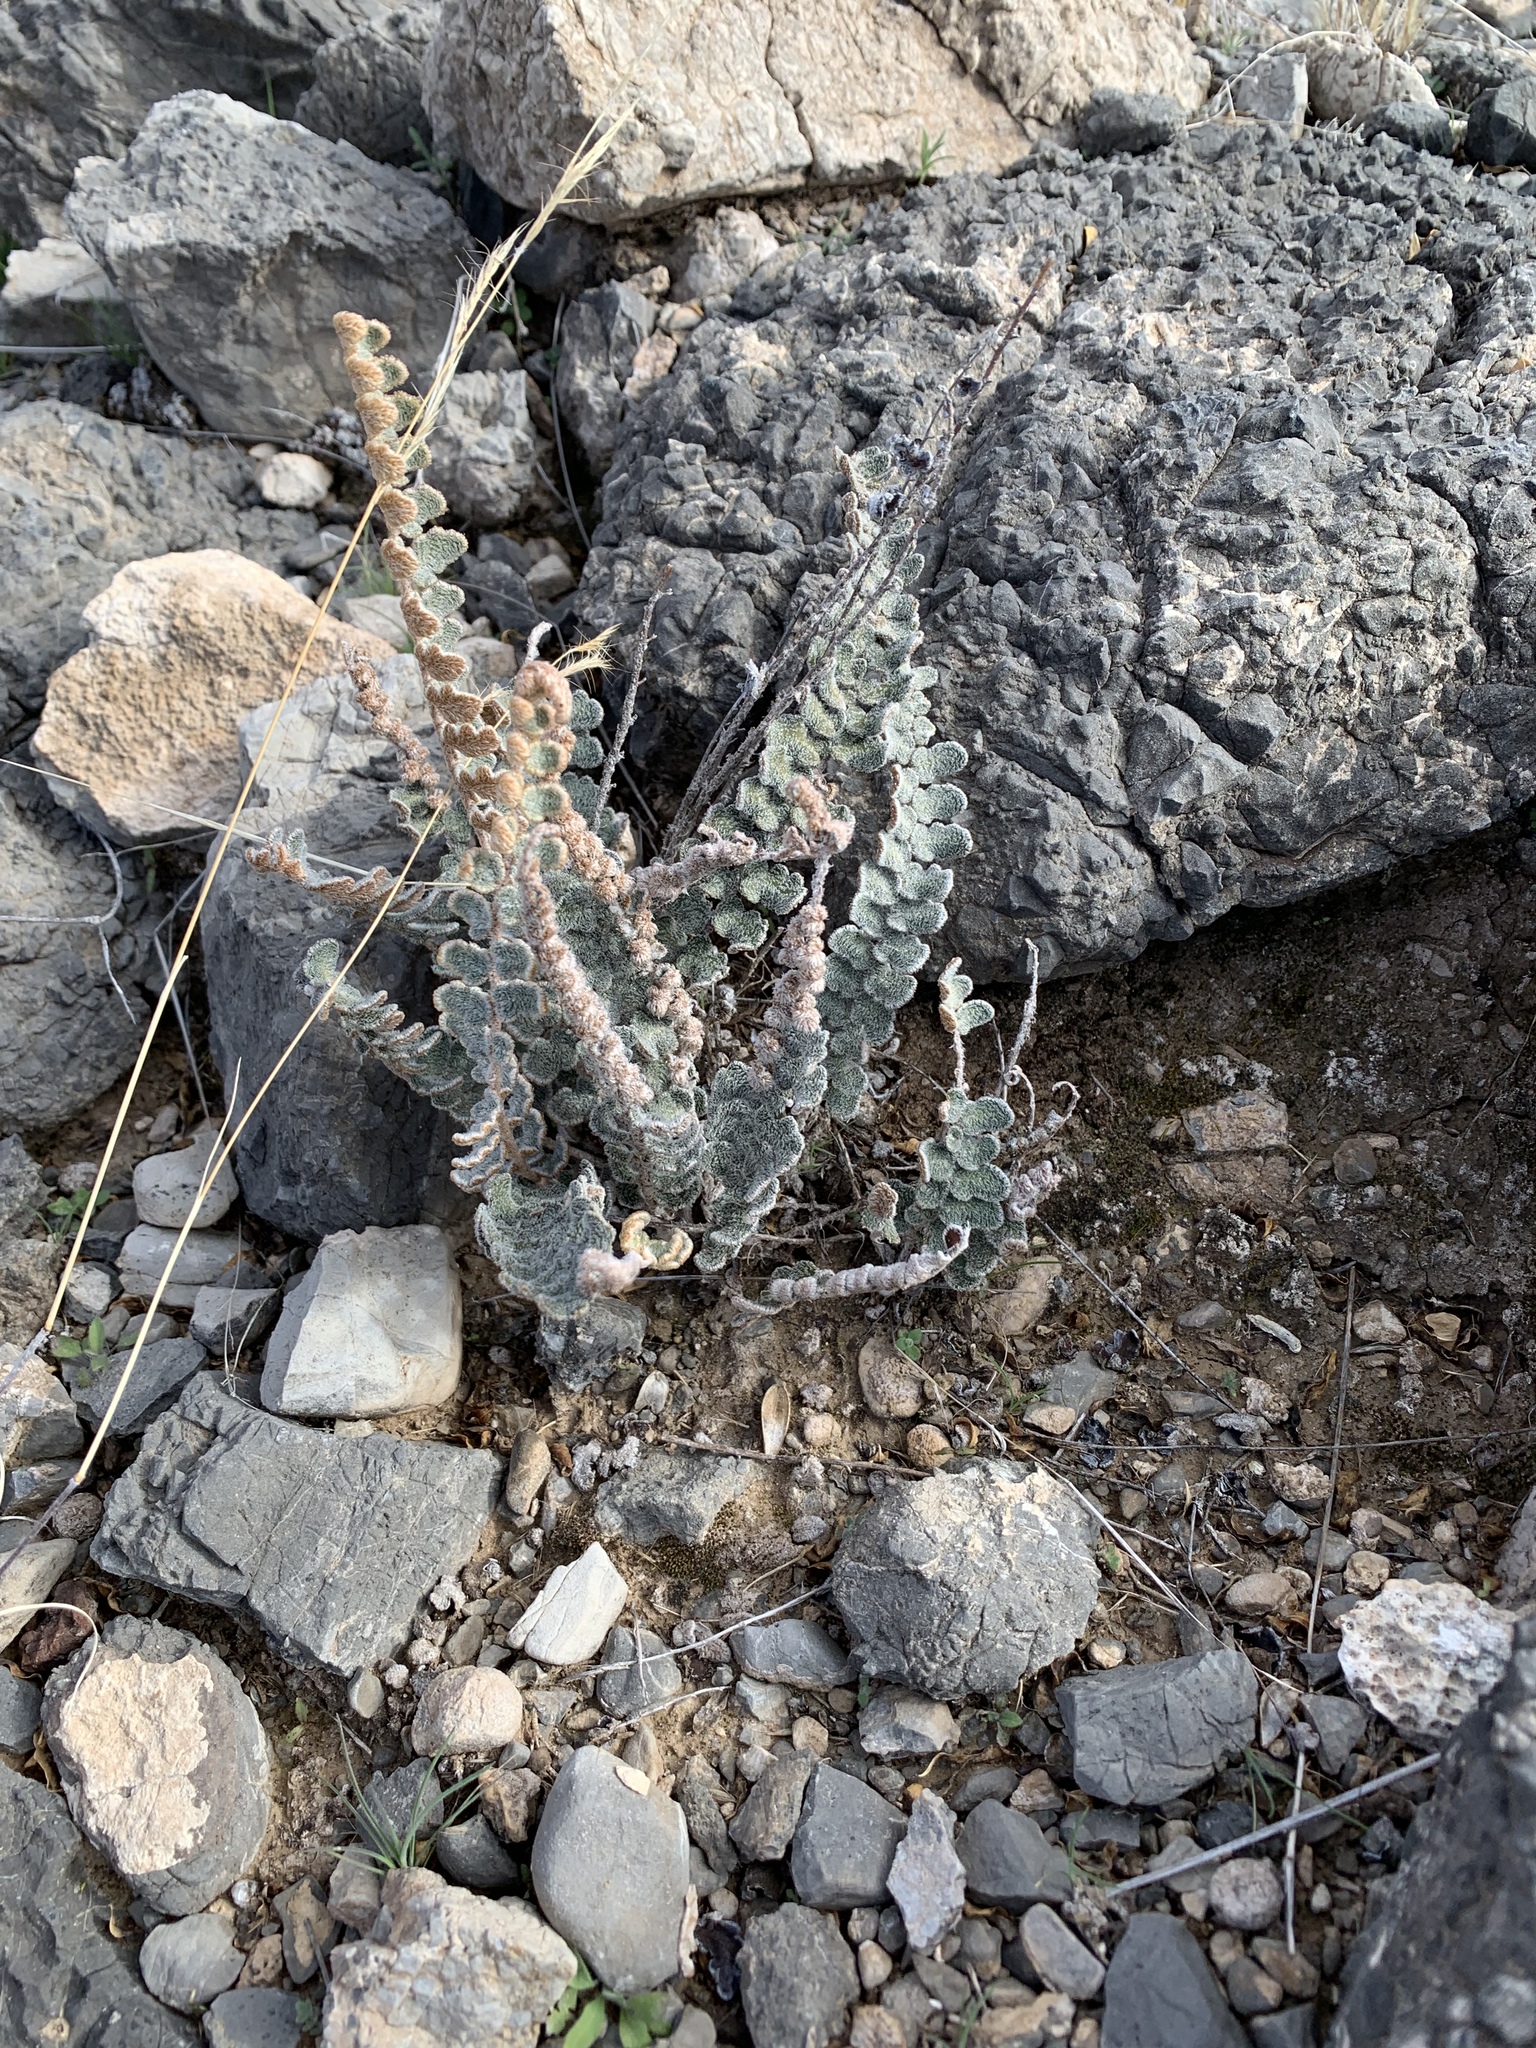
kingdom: Plantae
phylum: Tracheophyta
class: Polypodiopsida
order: Polypodiales
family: Pteridaceae
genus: Astrolepis
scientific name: Astrolepis cochisensis
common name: Scaly cloak fern
